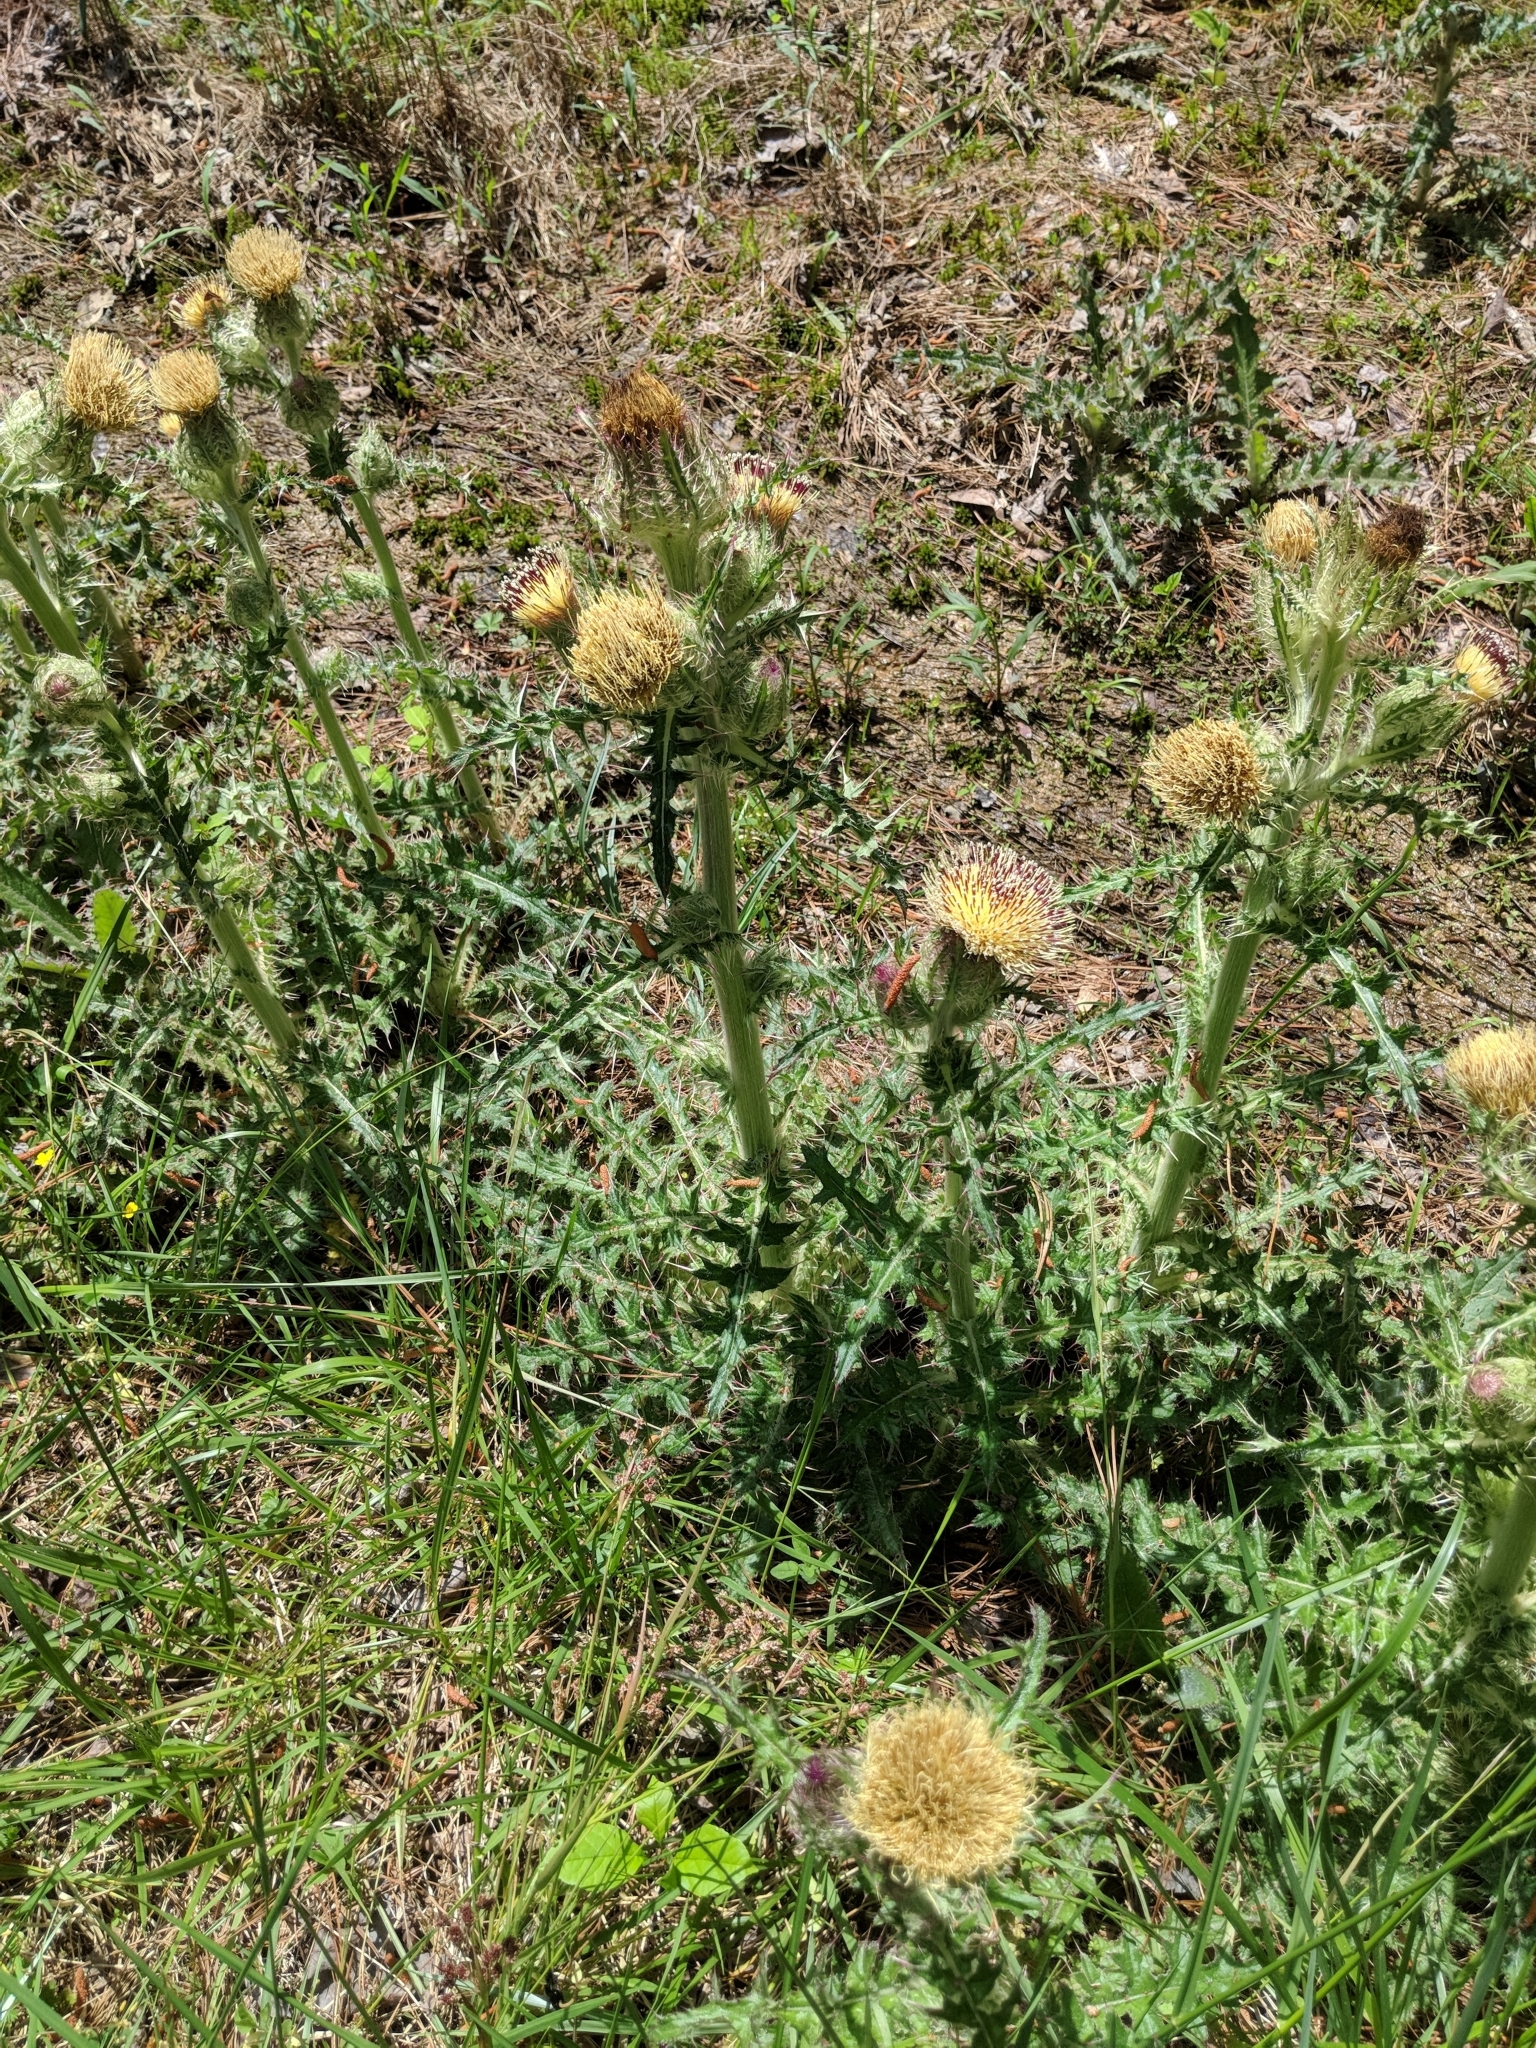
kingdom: Plantae
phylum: Tracheophyta
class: Magnoliopsida
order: Asterales
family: Asteraceae
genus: Cirsium
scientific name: Cirsium horridulum
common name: Bristly thistle
